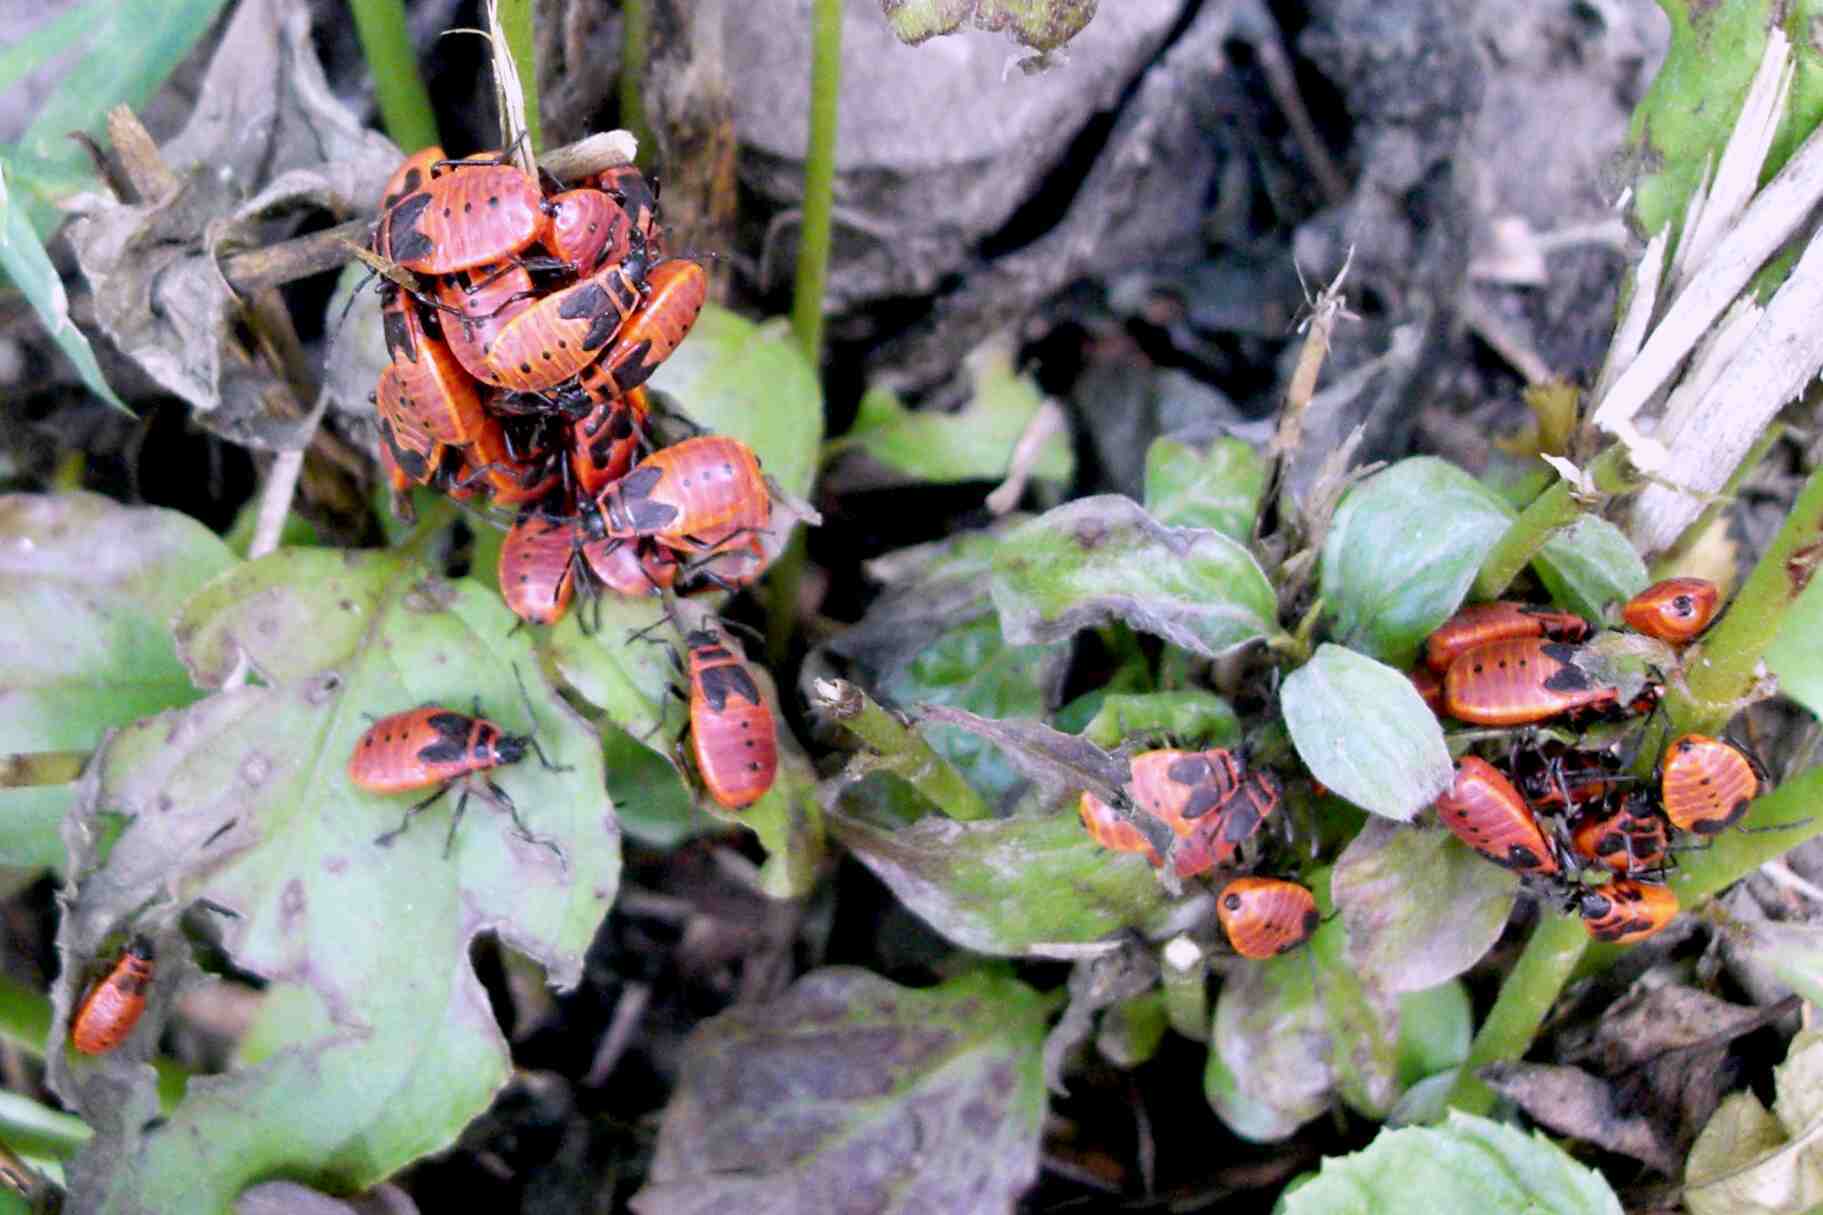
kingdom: Animalia
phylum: Arthropoda
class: Insecta
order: Hemiptera
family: Pyrrhocoridae
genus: Pyrrhocoris
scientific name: Pyrrhocoris apterus
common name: Firebug
